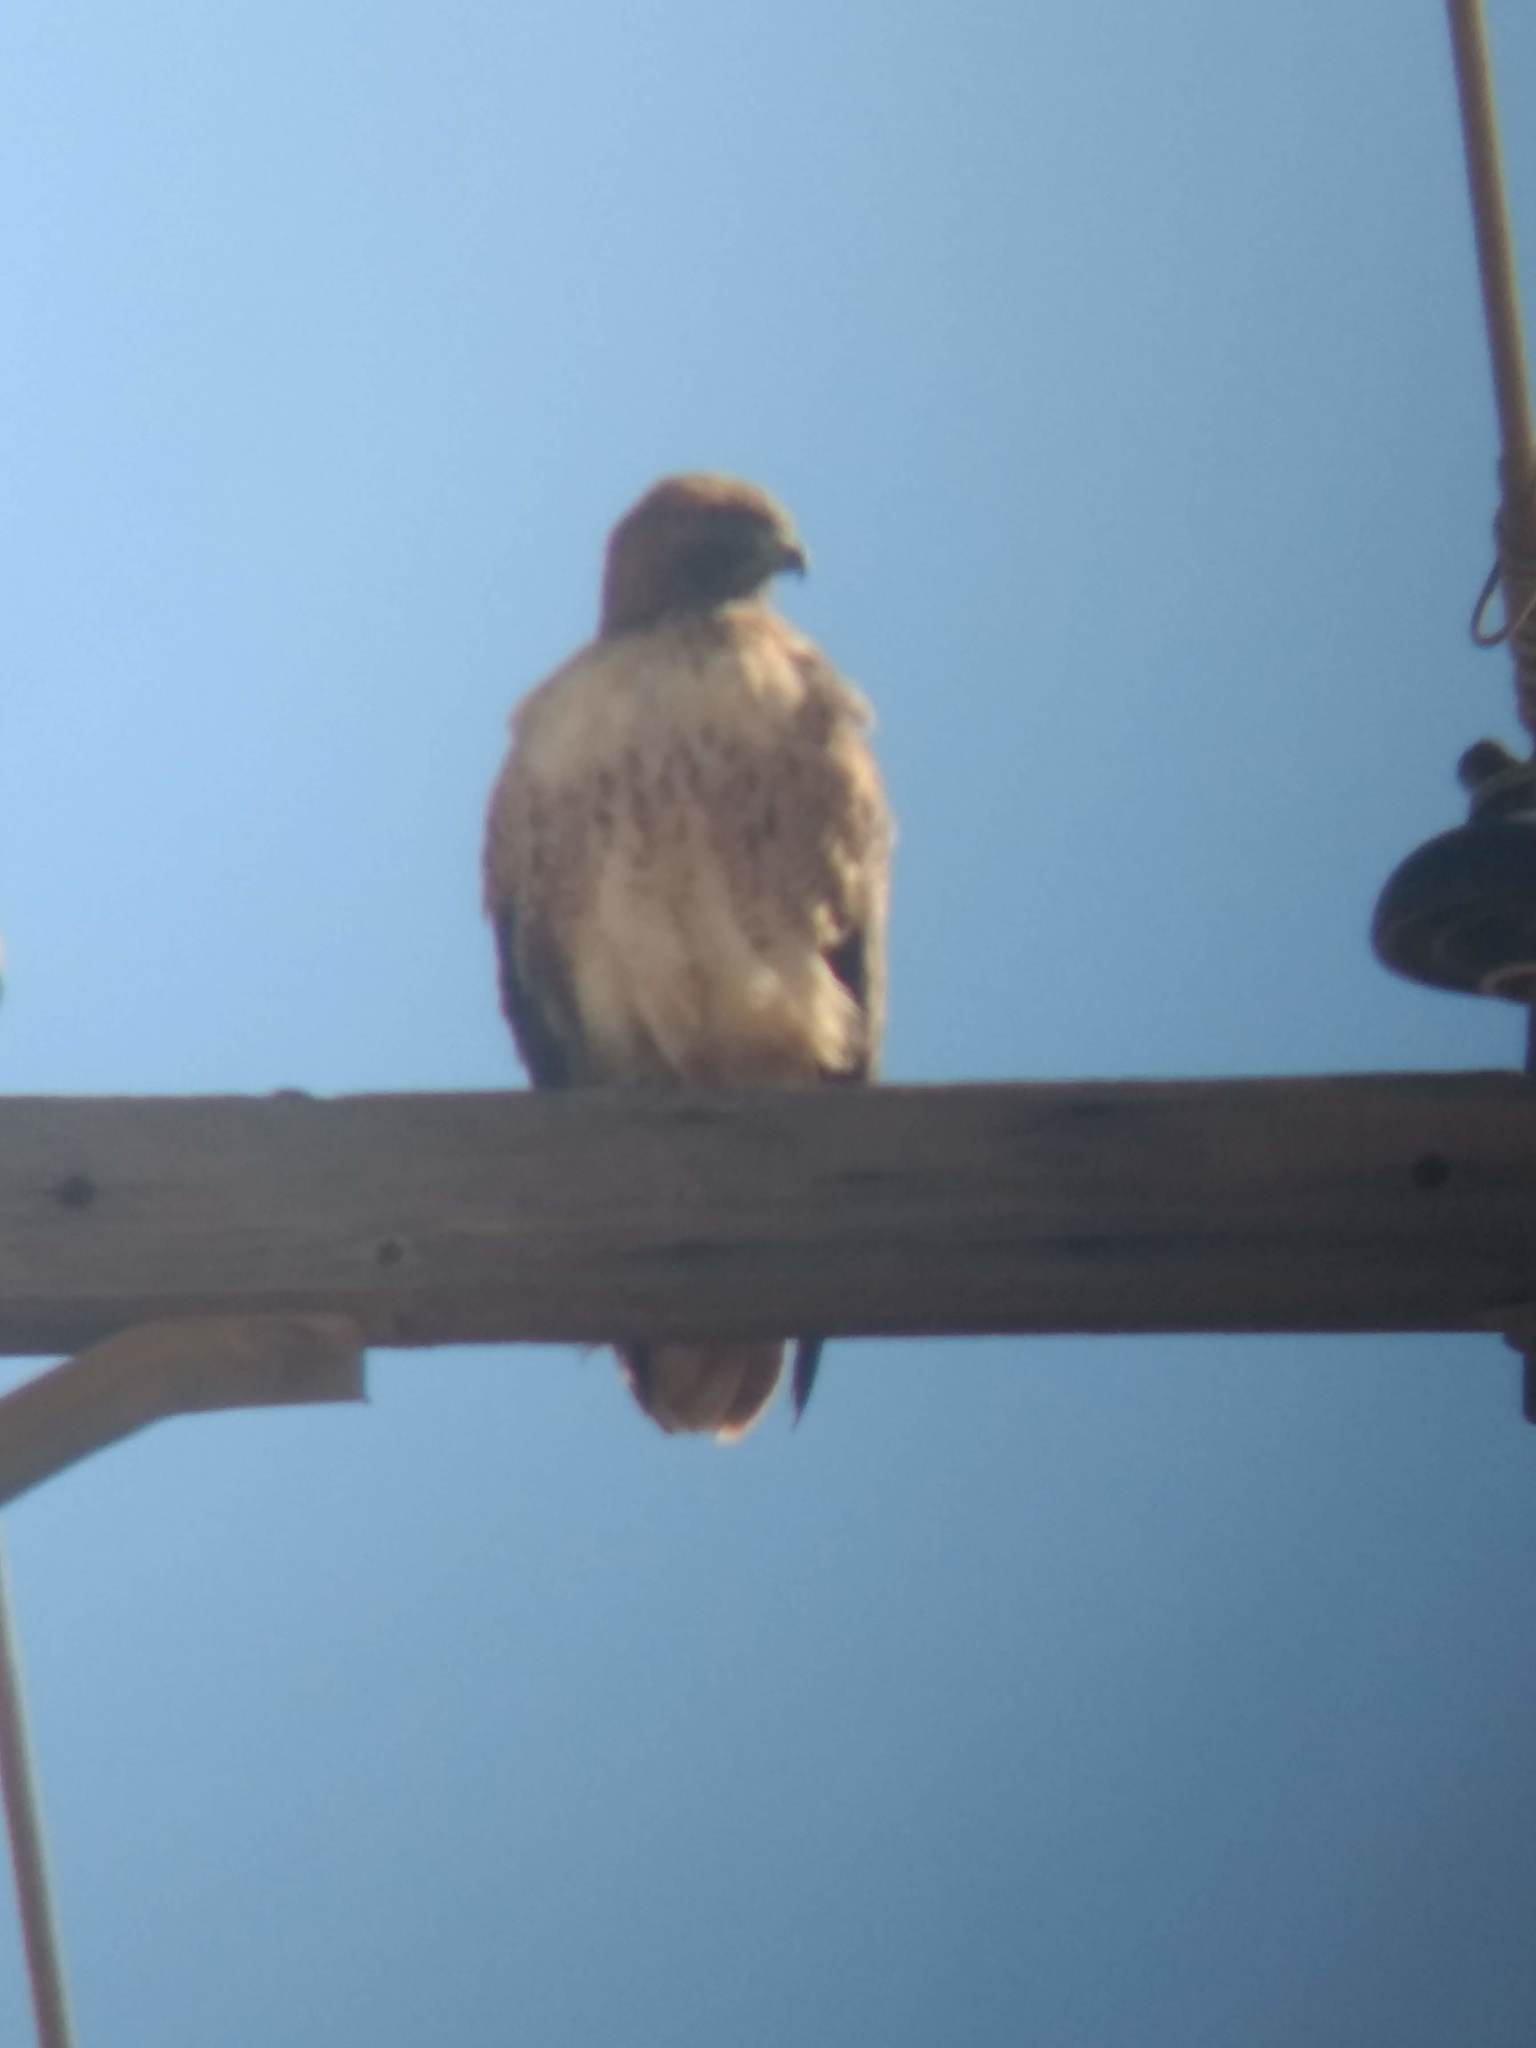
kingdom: Animalia
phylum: Chordata
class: Aves
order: Accipitriformes
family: Accipitridae
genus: Buteo
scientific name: Buteo jamaicensis
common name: Red-tailed hawk
